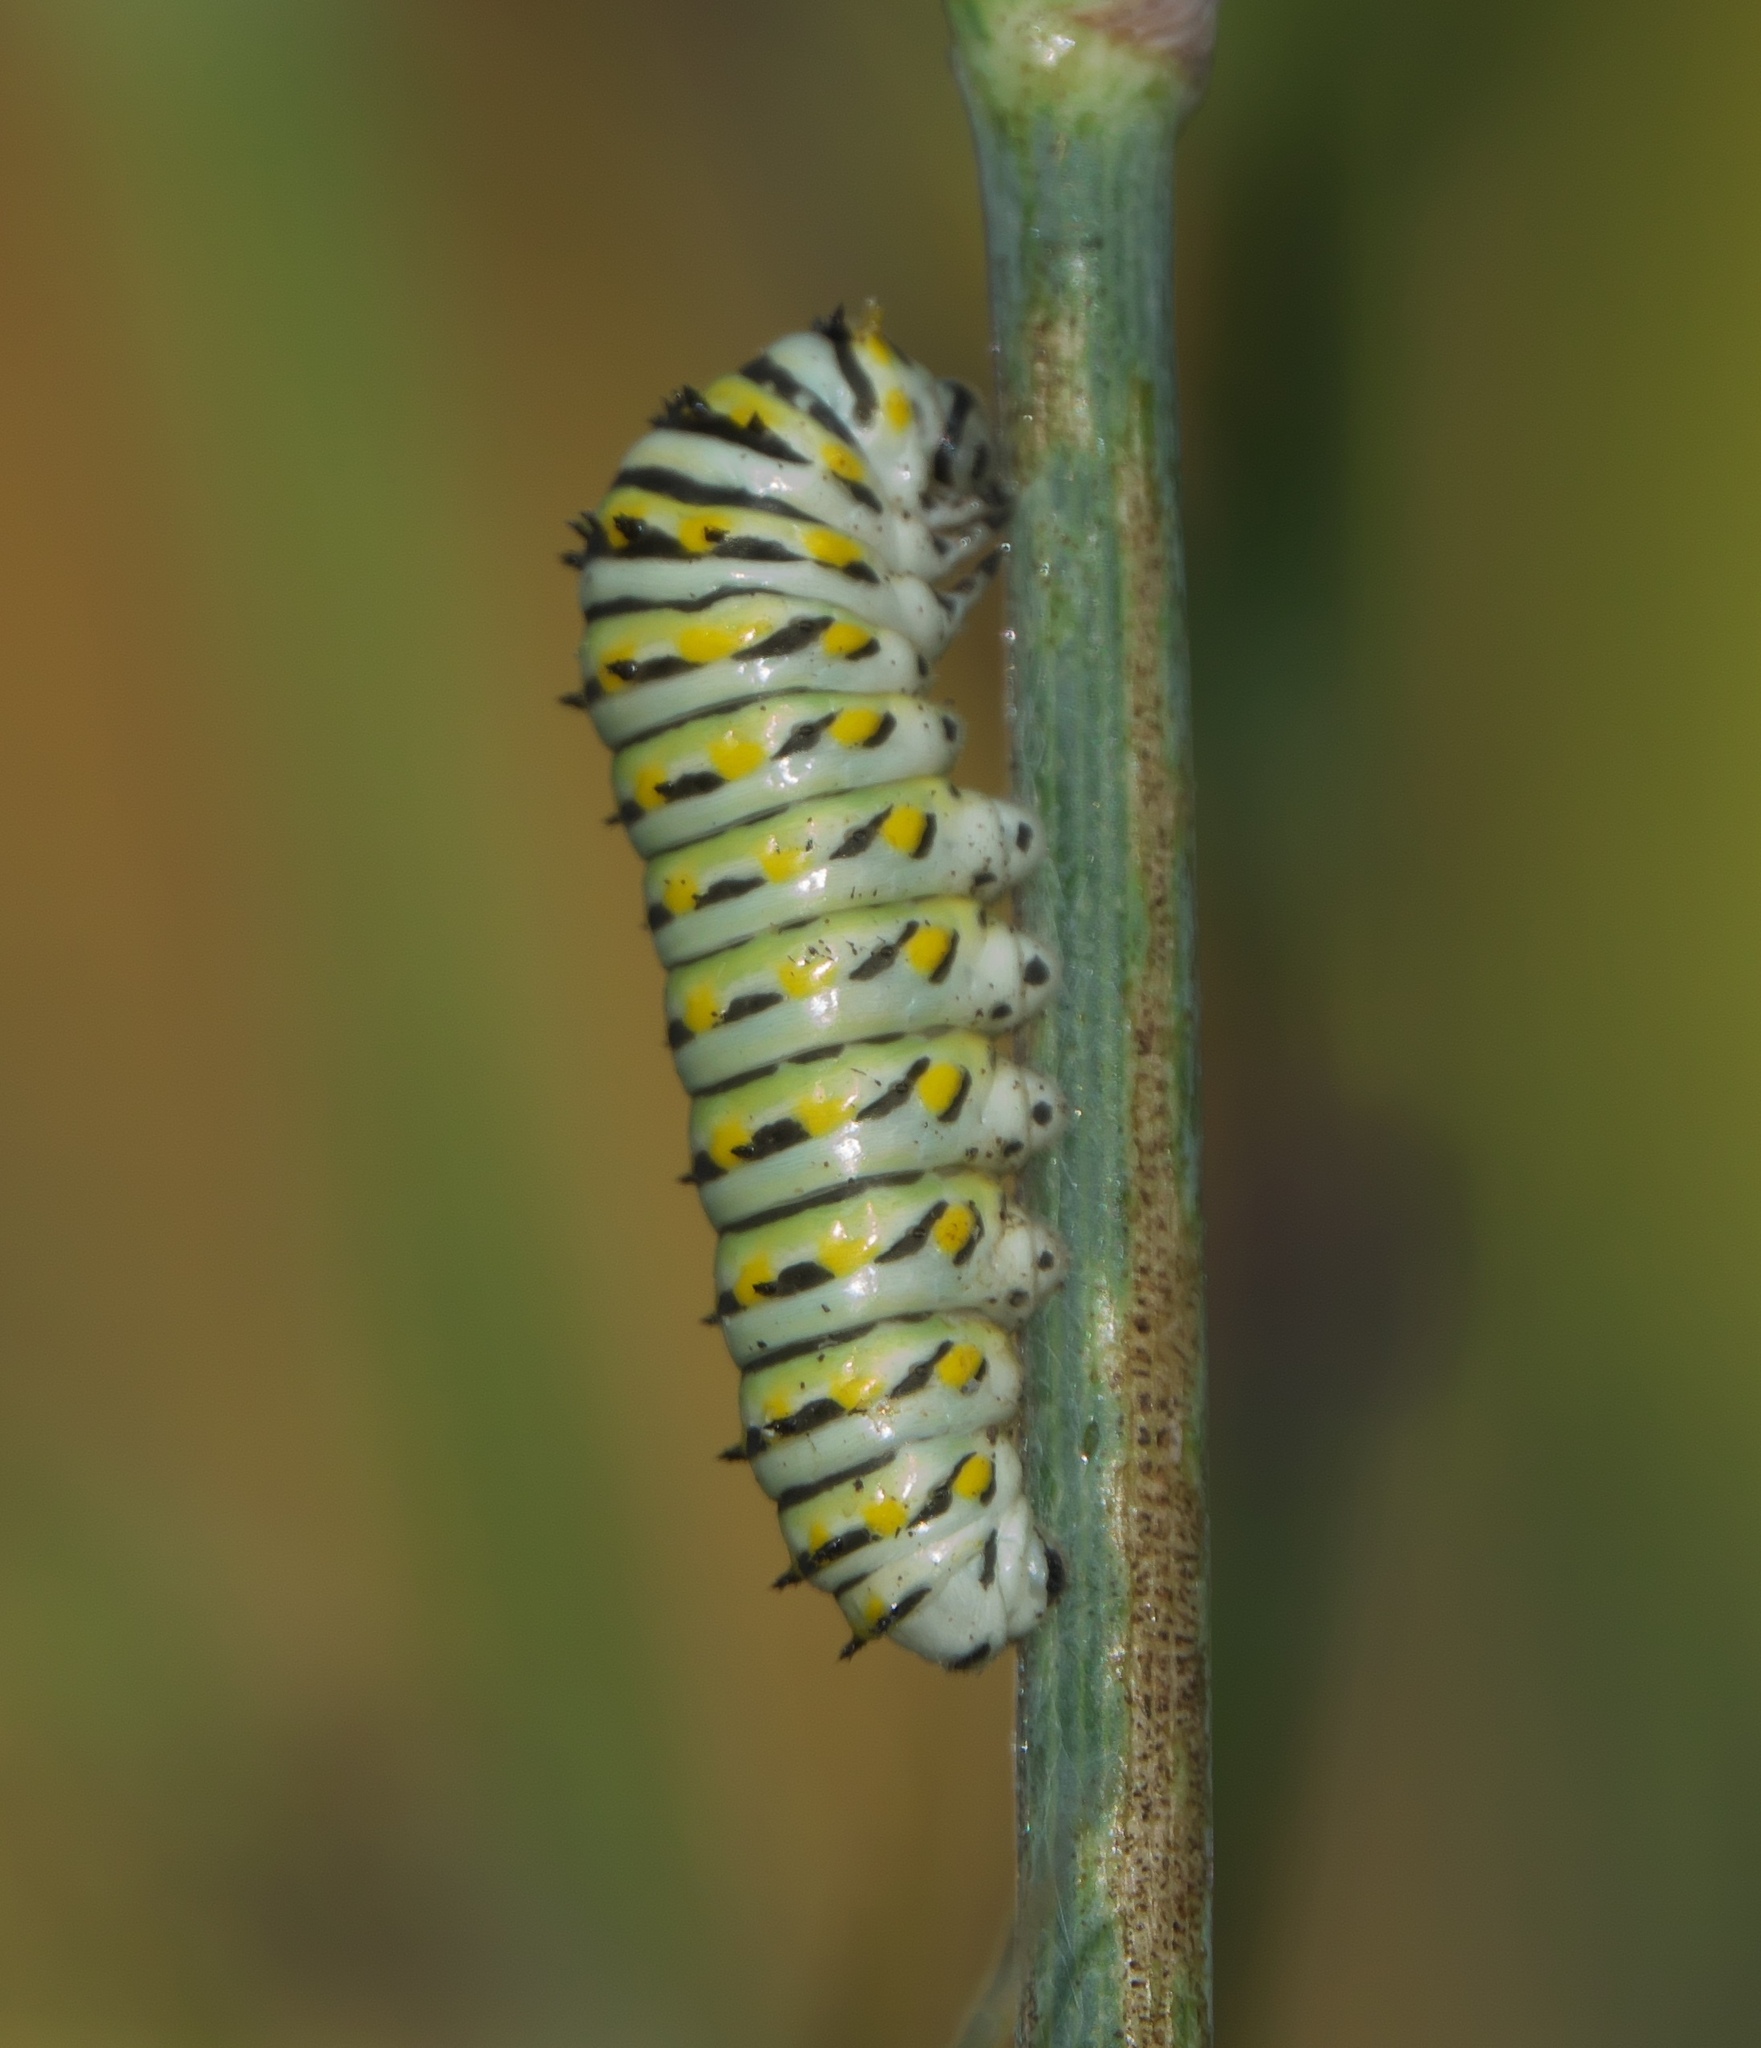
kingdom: Animalia
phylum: Arthropoda
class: Insecta
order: Lepidoptera
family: Papilionidae
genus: Papilio
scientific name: Papilio polyxenes
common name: Black swallowtail
